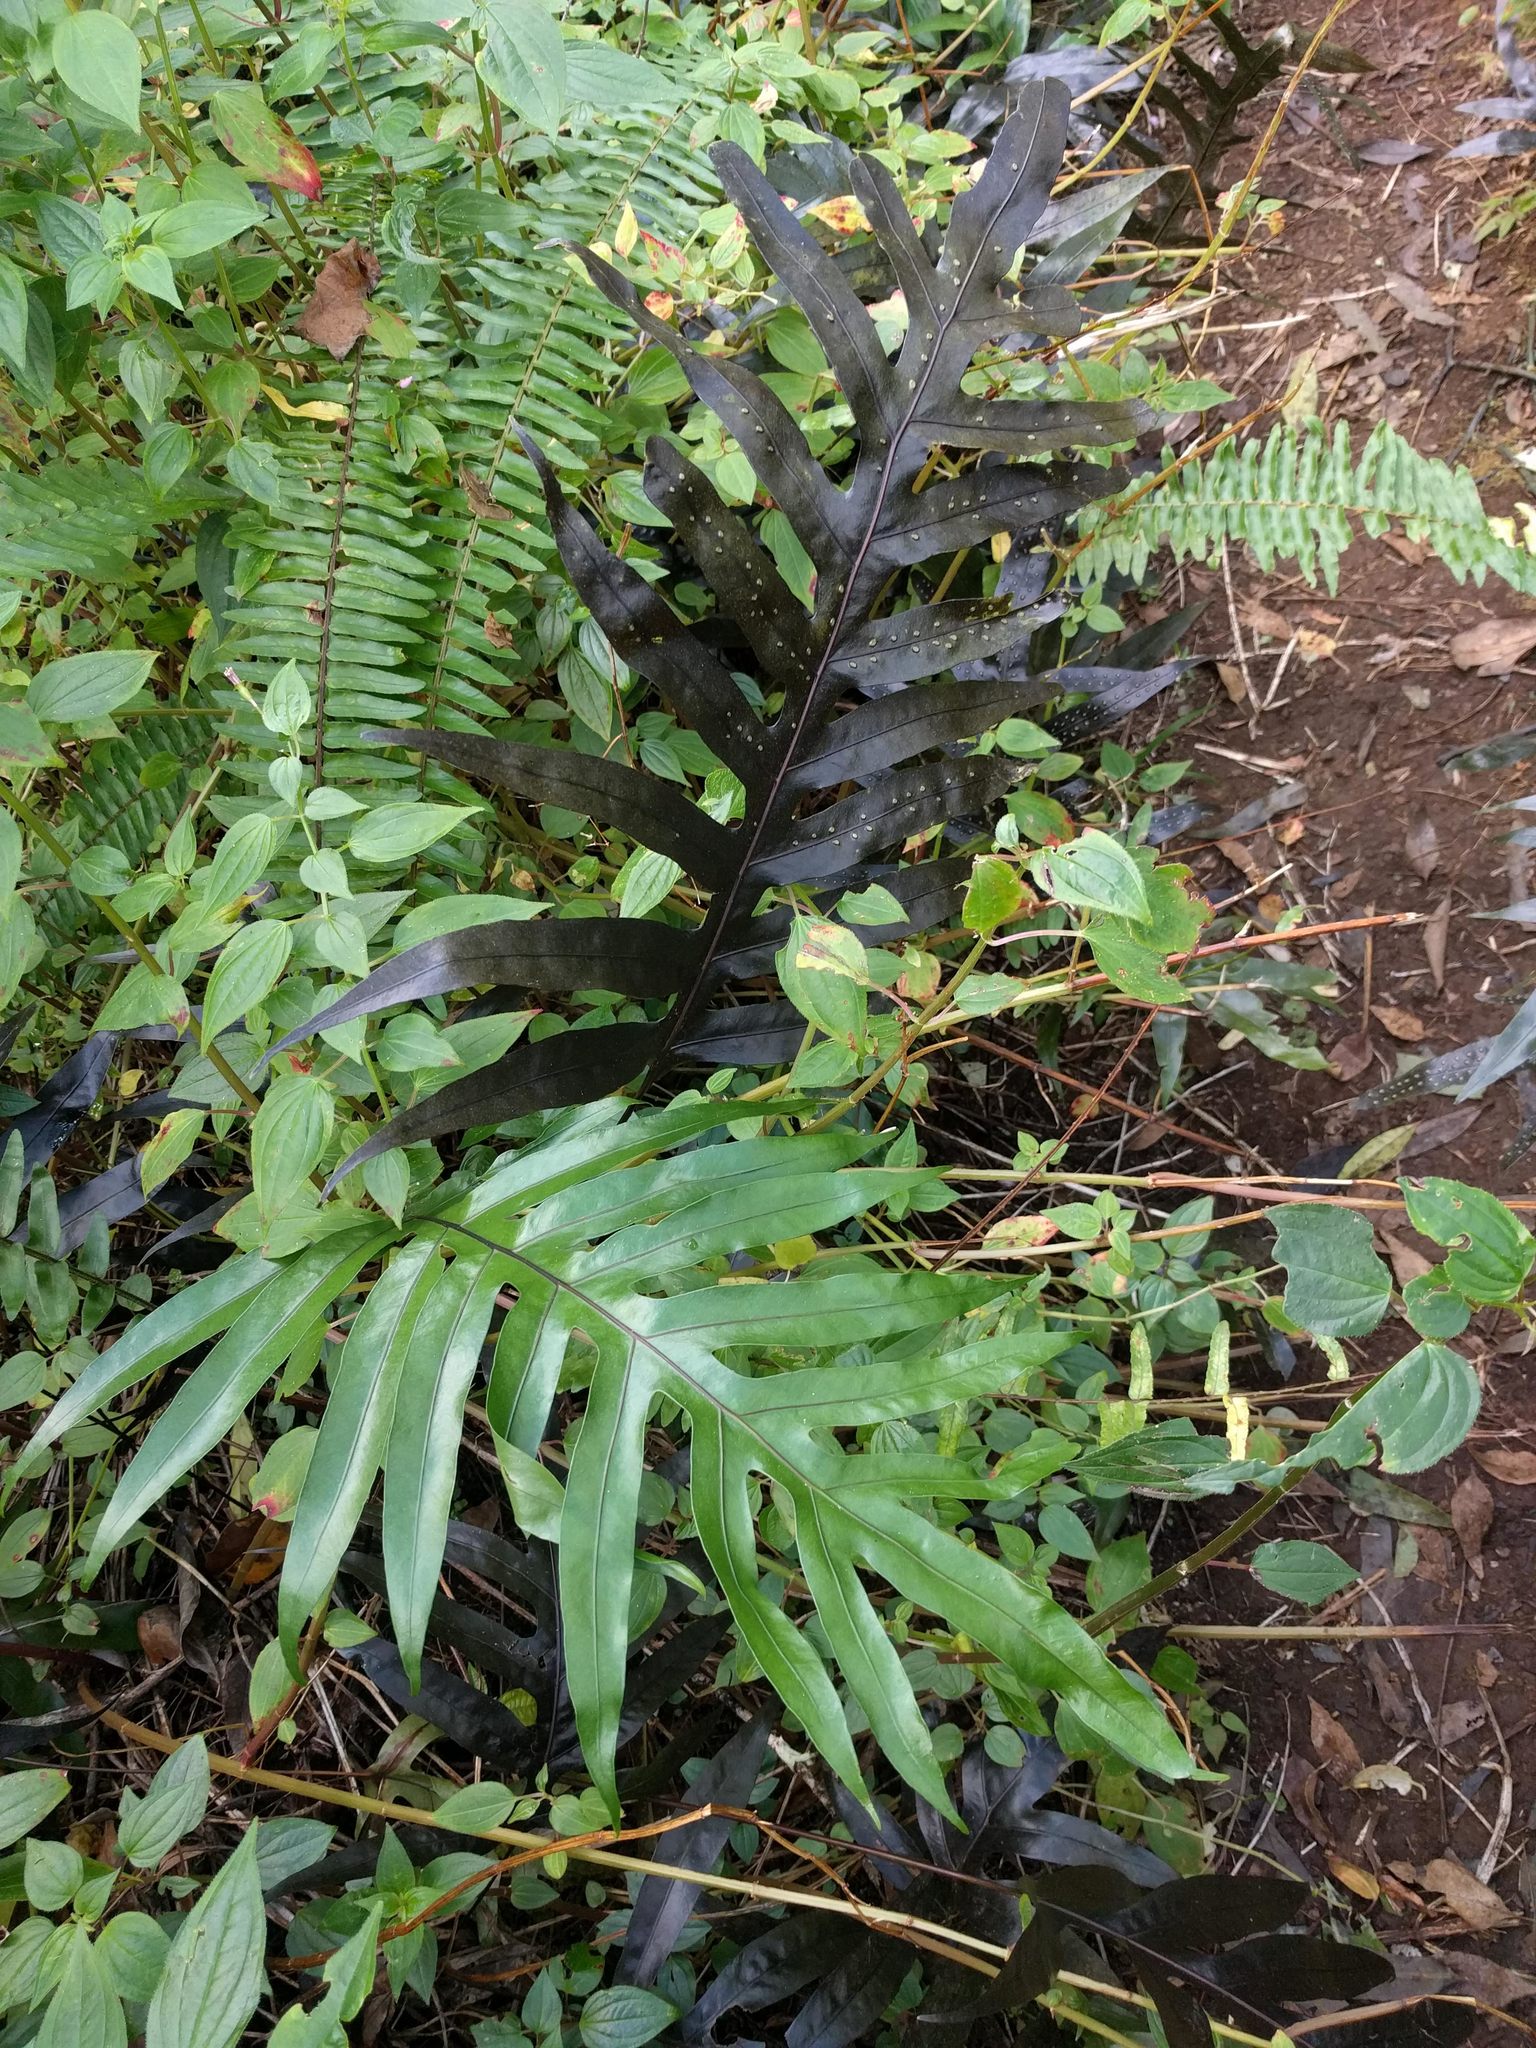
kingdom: Plantae
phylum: Tracheophyta
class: Polypodiopsida
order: Polypodiales
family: Polypodiaceae
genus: Microsorum
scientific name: Microsorum grossum
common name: Musk fern
